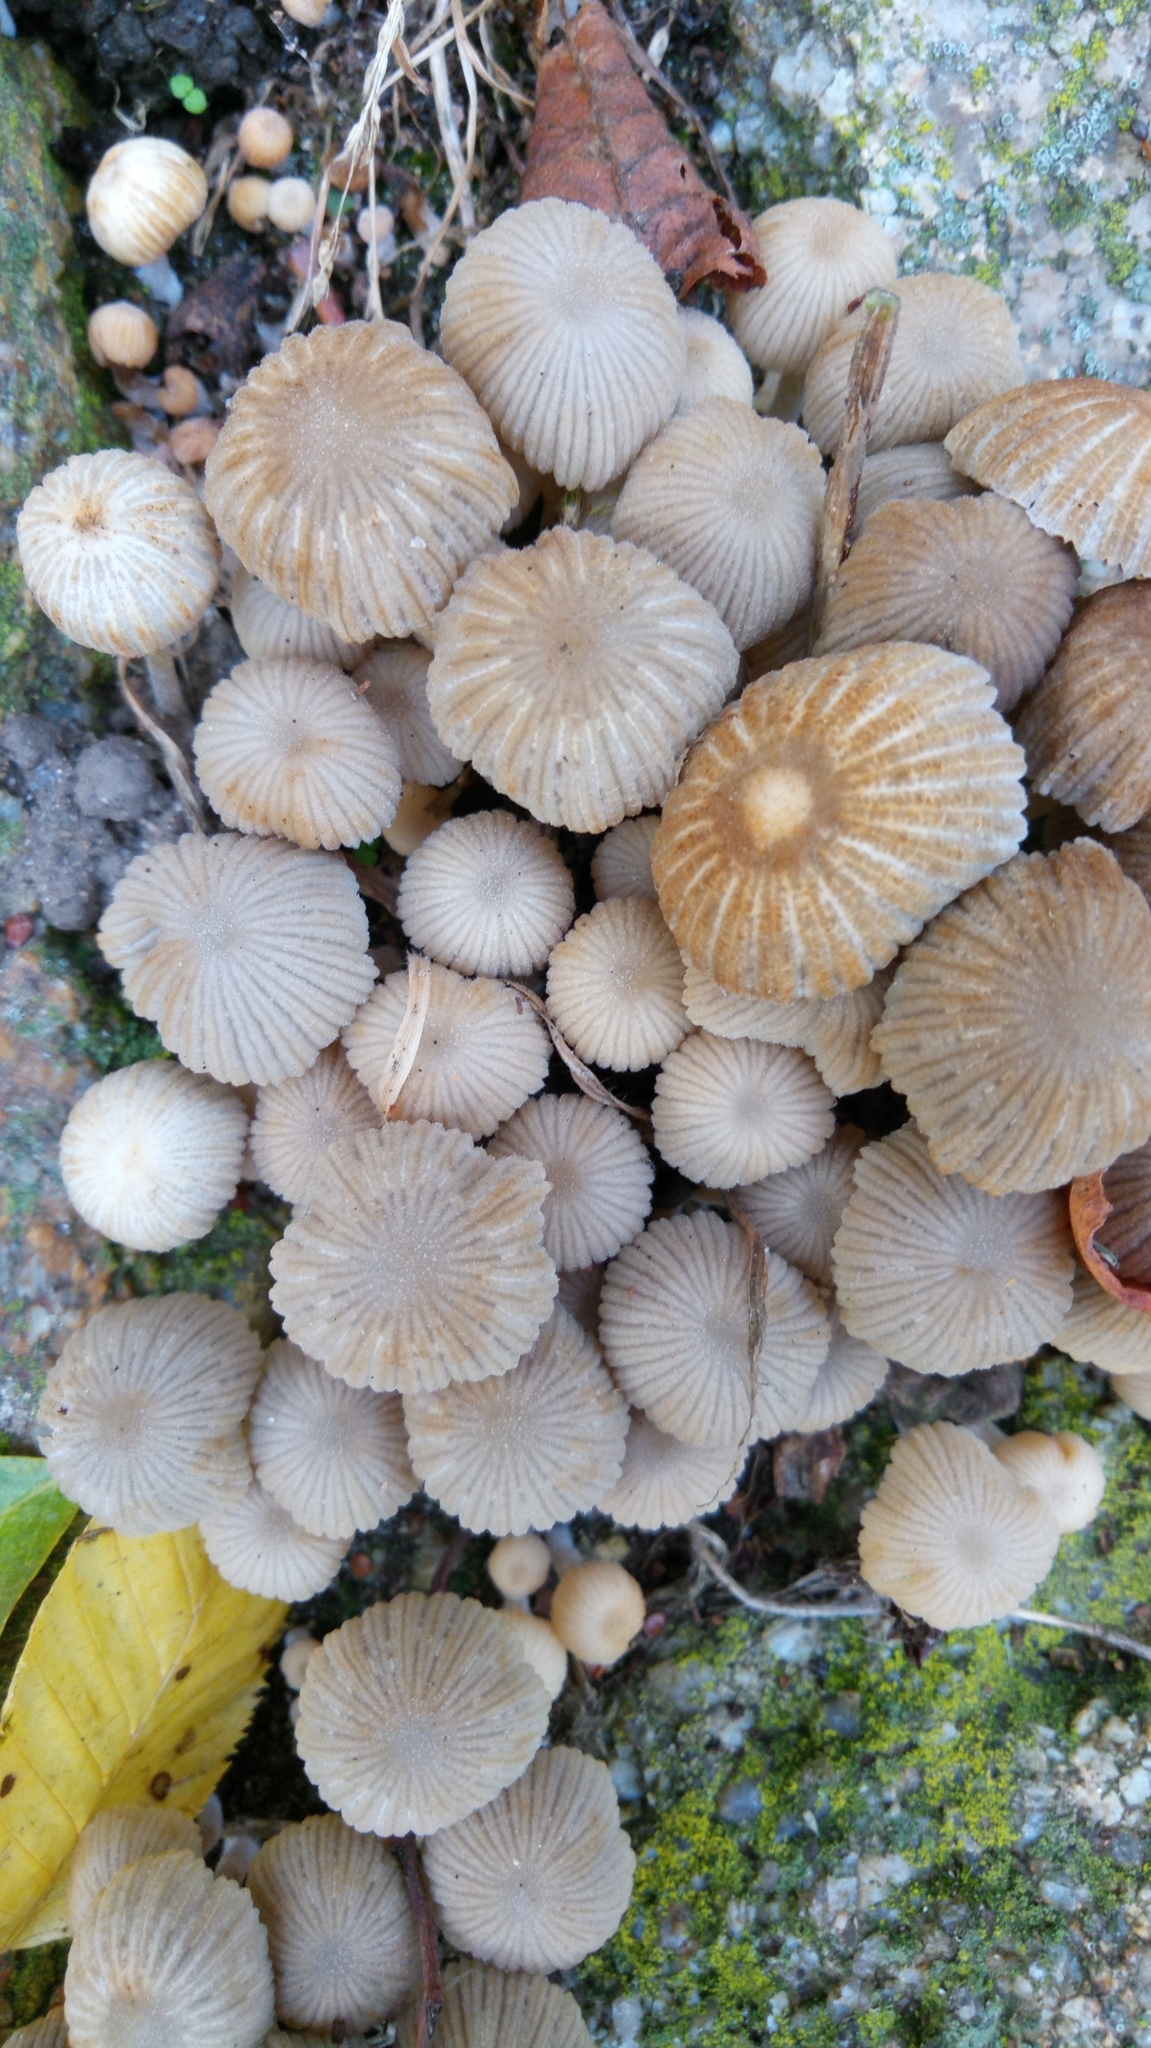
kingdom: Fungi
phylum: Basidiomycota
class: Agaricomycetes
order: Agaricales
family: Psathyrellaceae
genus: Coprinellus
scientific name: Coprinellus disseminatus
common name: Fairies' bonnets
